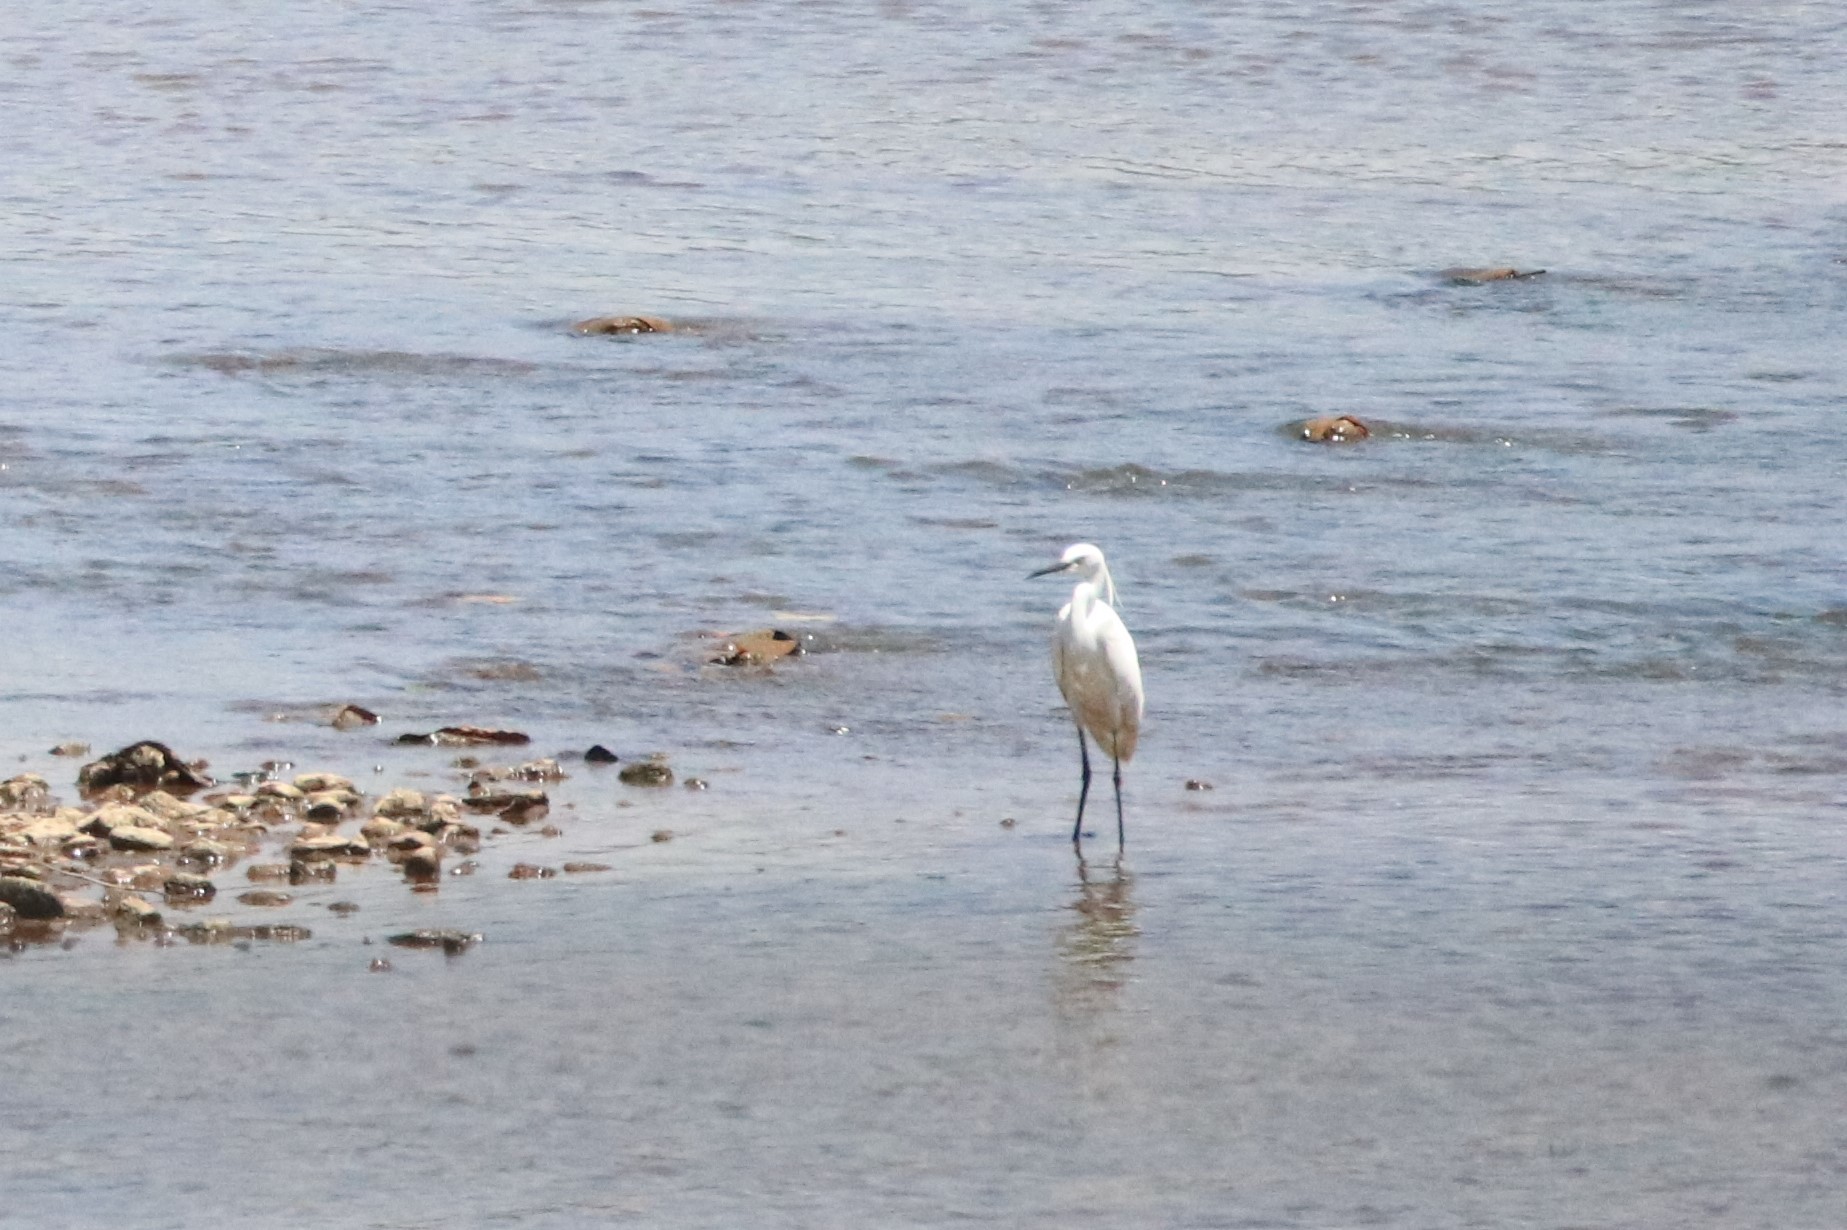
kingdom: Animalia
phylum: Chordata
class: Aves
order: Pelecaniformes
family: Ardeidae
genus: Egretta
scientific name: Egretta garzetta
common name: Little egret
